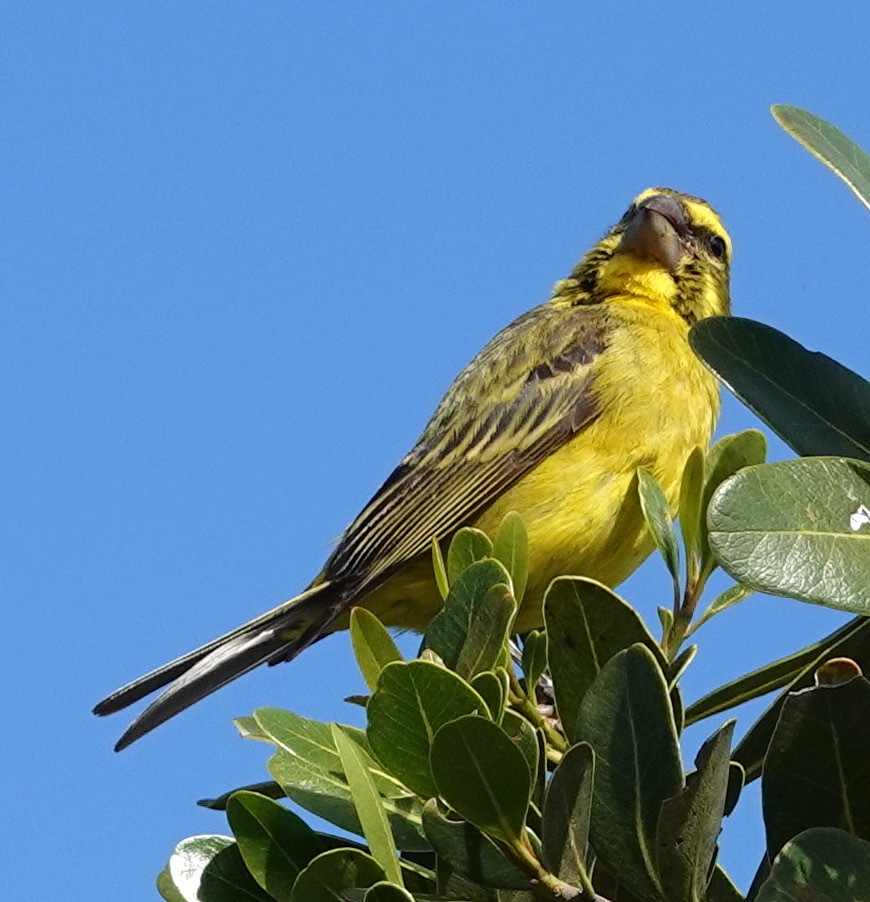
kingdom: Animalia
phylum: Chordata
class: Aves
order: Passeriformes
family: Fringillidae
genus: Crithagra
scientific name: Crithagra sulphurata
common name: Brimstone canary
